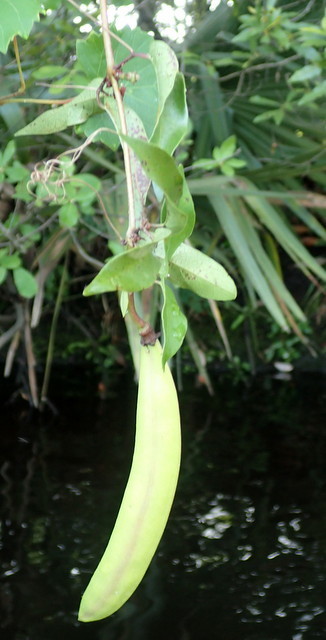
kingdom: Plantae
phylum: Tracheophyta
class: Magnoliopsida
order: Lamiales
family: Bignoniaceae
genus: Bignonia
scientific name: Bignonia capreolata
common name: Crossvine
